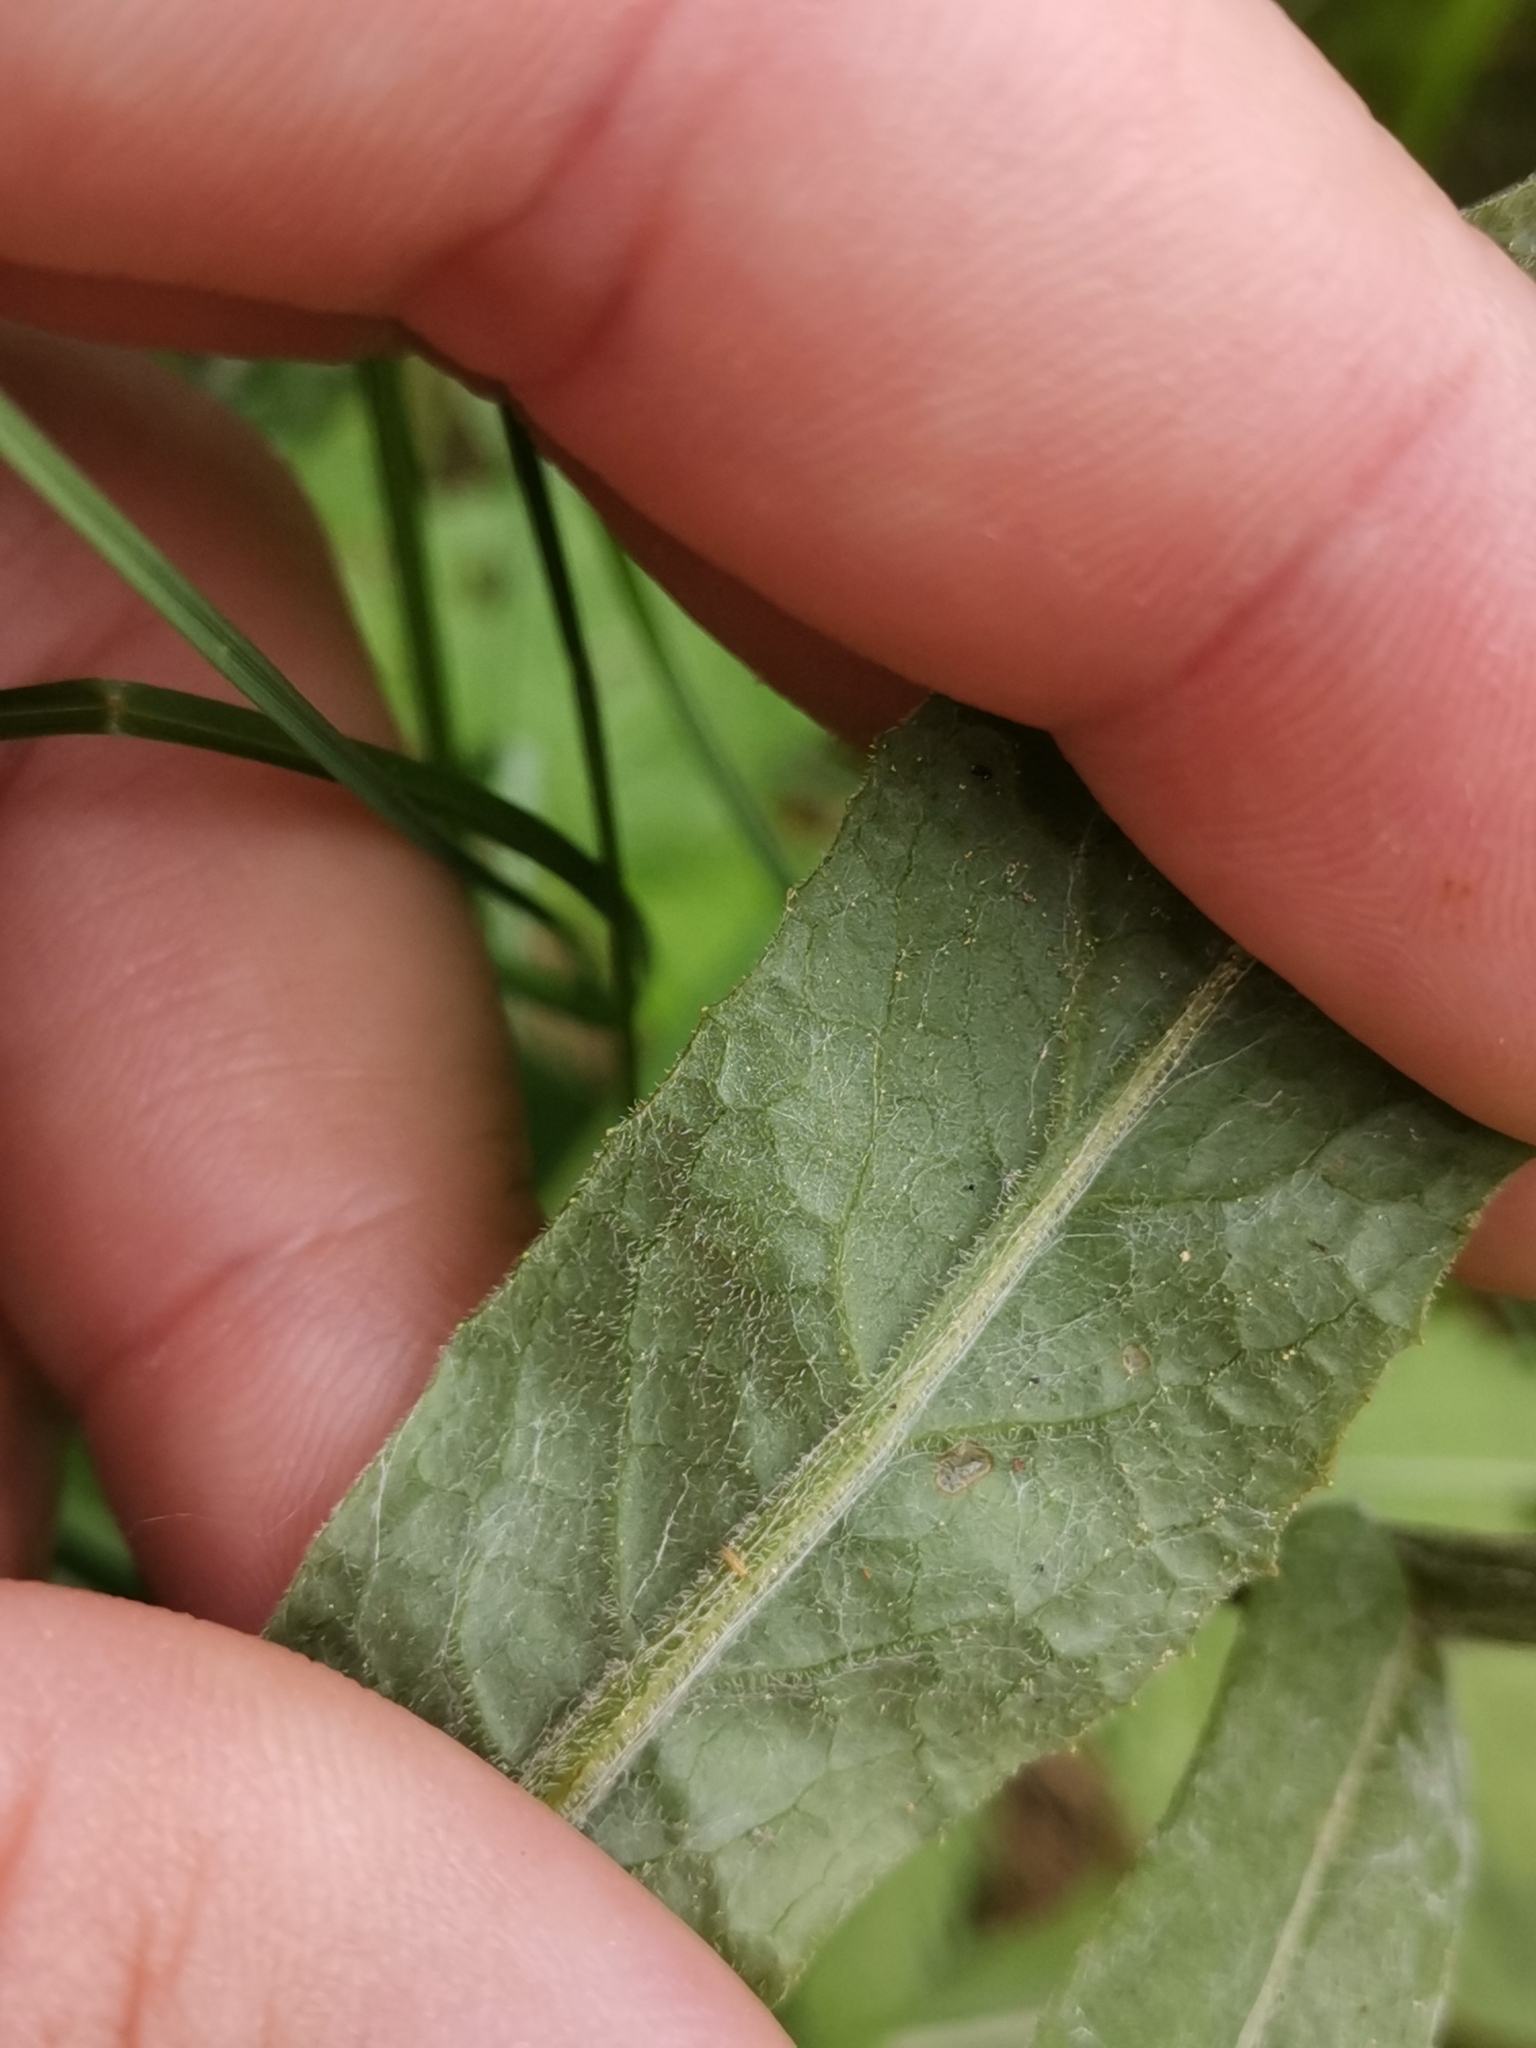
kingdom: Plantae
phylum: Tracheophyta
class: Magnoliopsida
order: Asterales
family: Asteraceae
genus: Tephroseris
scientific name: Tephroseris integrifolia
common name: Field fleawort
